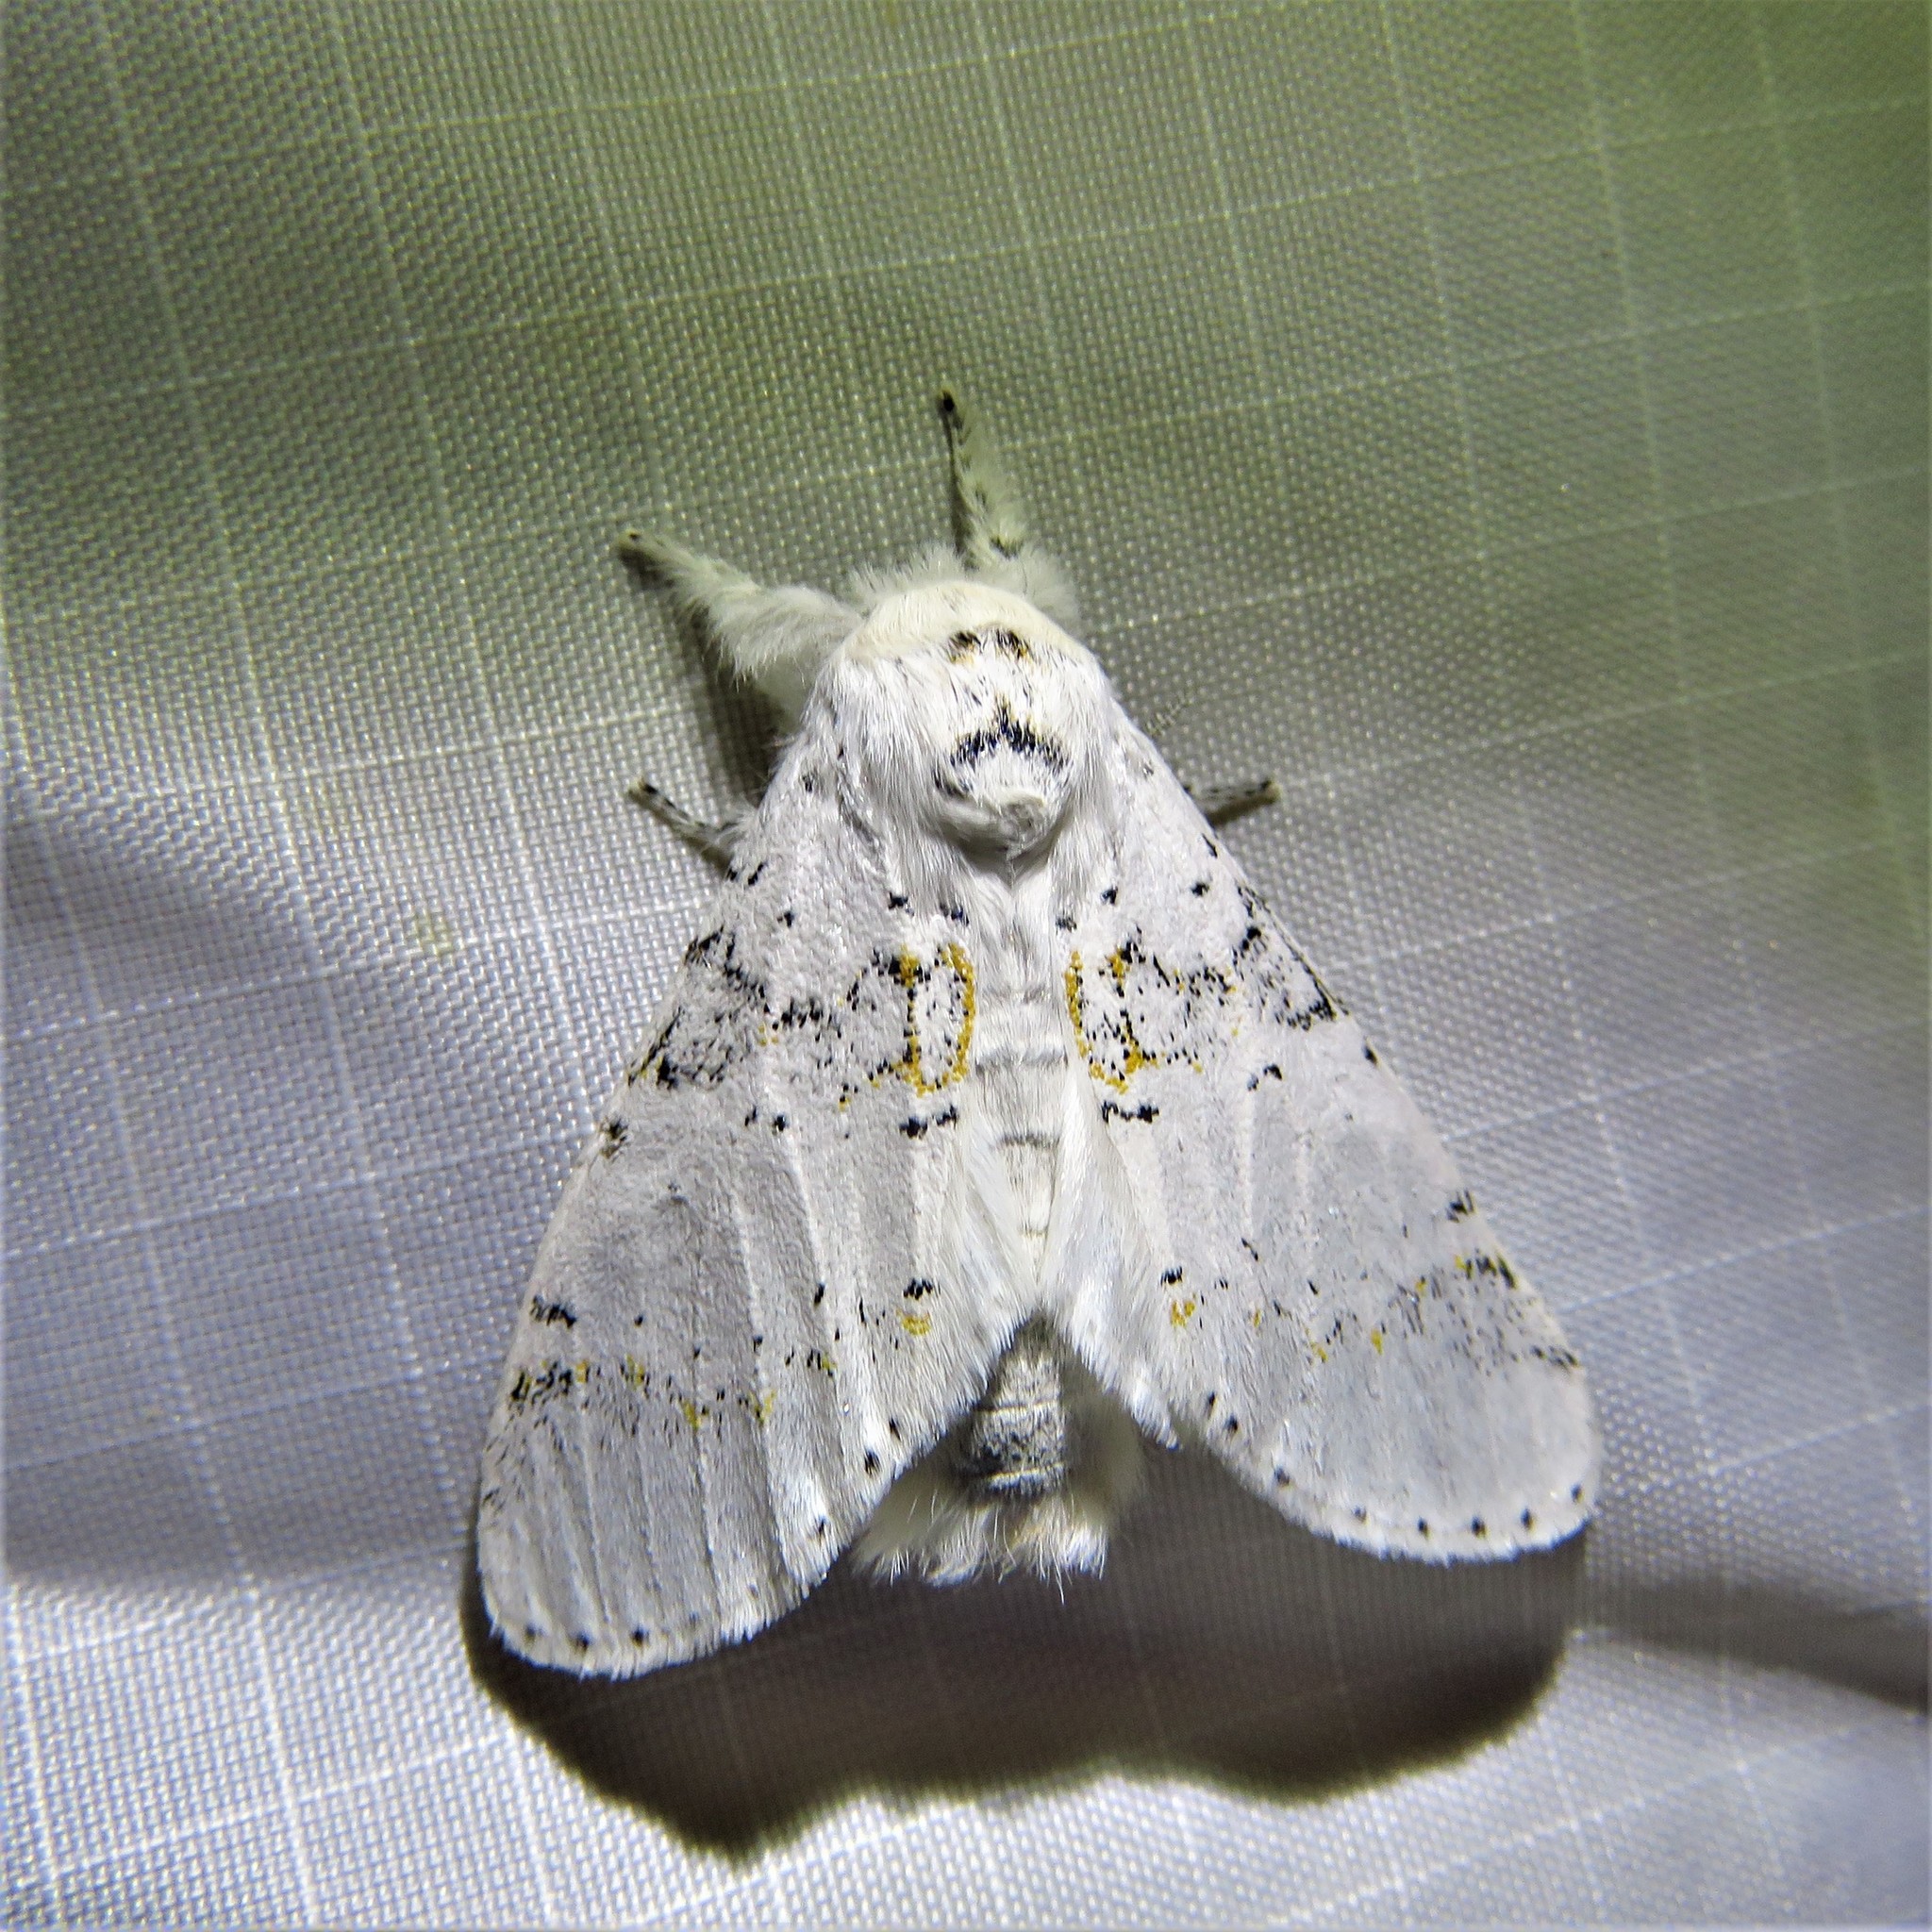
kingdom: Animalia
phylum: Arthropoda
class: Insecta
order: Lepidoptera
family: Notodontidae
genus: Furcula
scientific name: Furcula nivea
